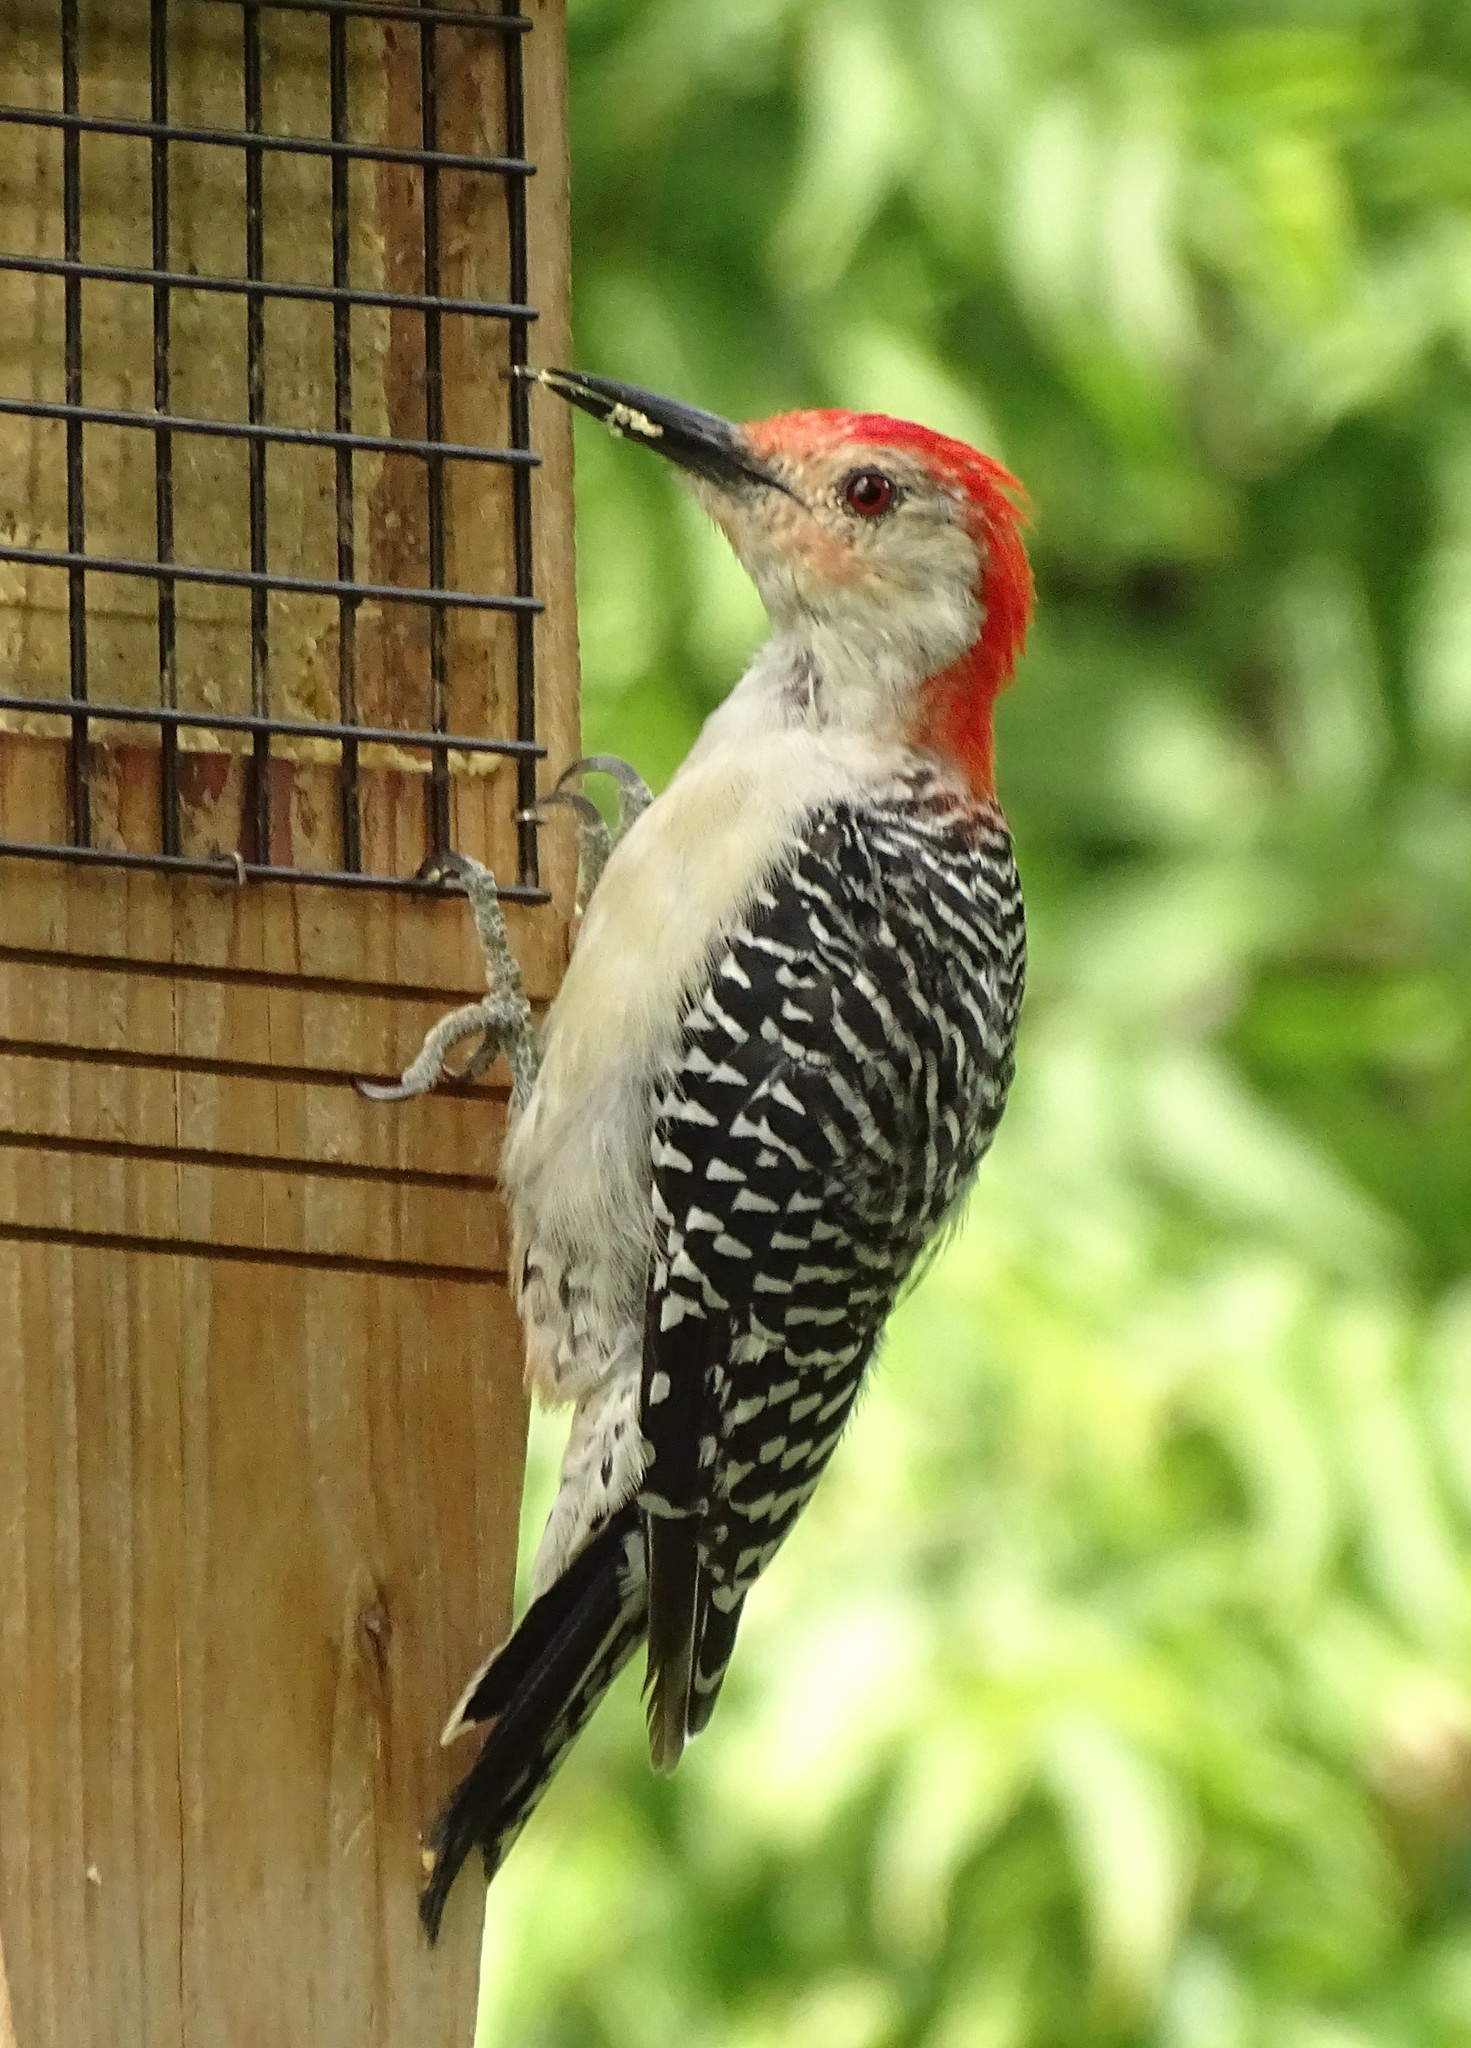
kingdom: Animalia
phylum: Chordata
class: Aves
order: Piciformes
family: Picidae
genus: Melanerpes
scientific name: Melanerpes carolinus
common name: Red-bellied woodpecker
